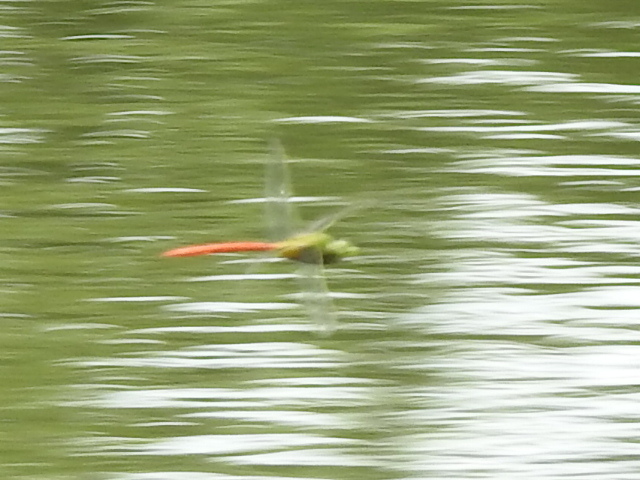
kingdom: Animalia
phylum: Arthropoda
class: Insecta
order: Odonata
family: Aeshnidae
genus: Anax
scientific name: Anax longipes
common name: Comet darner
